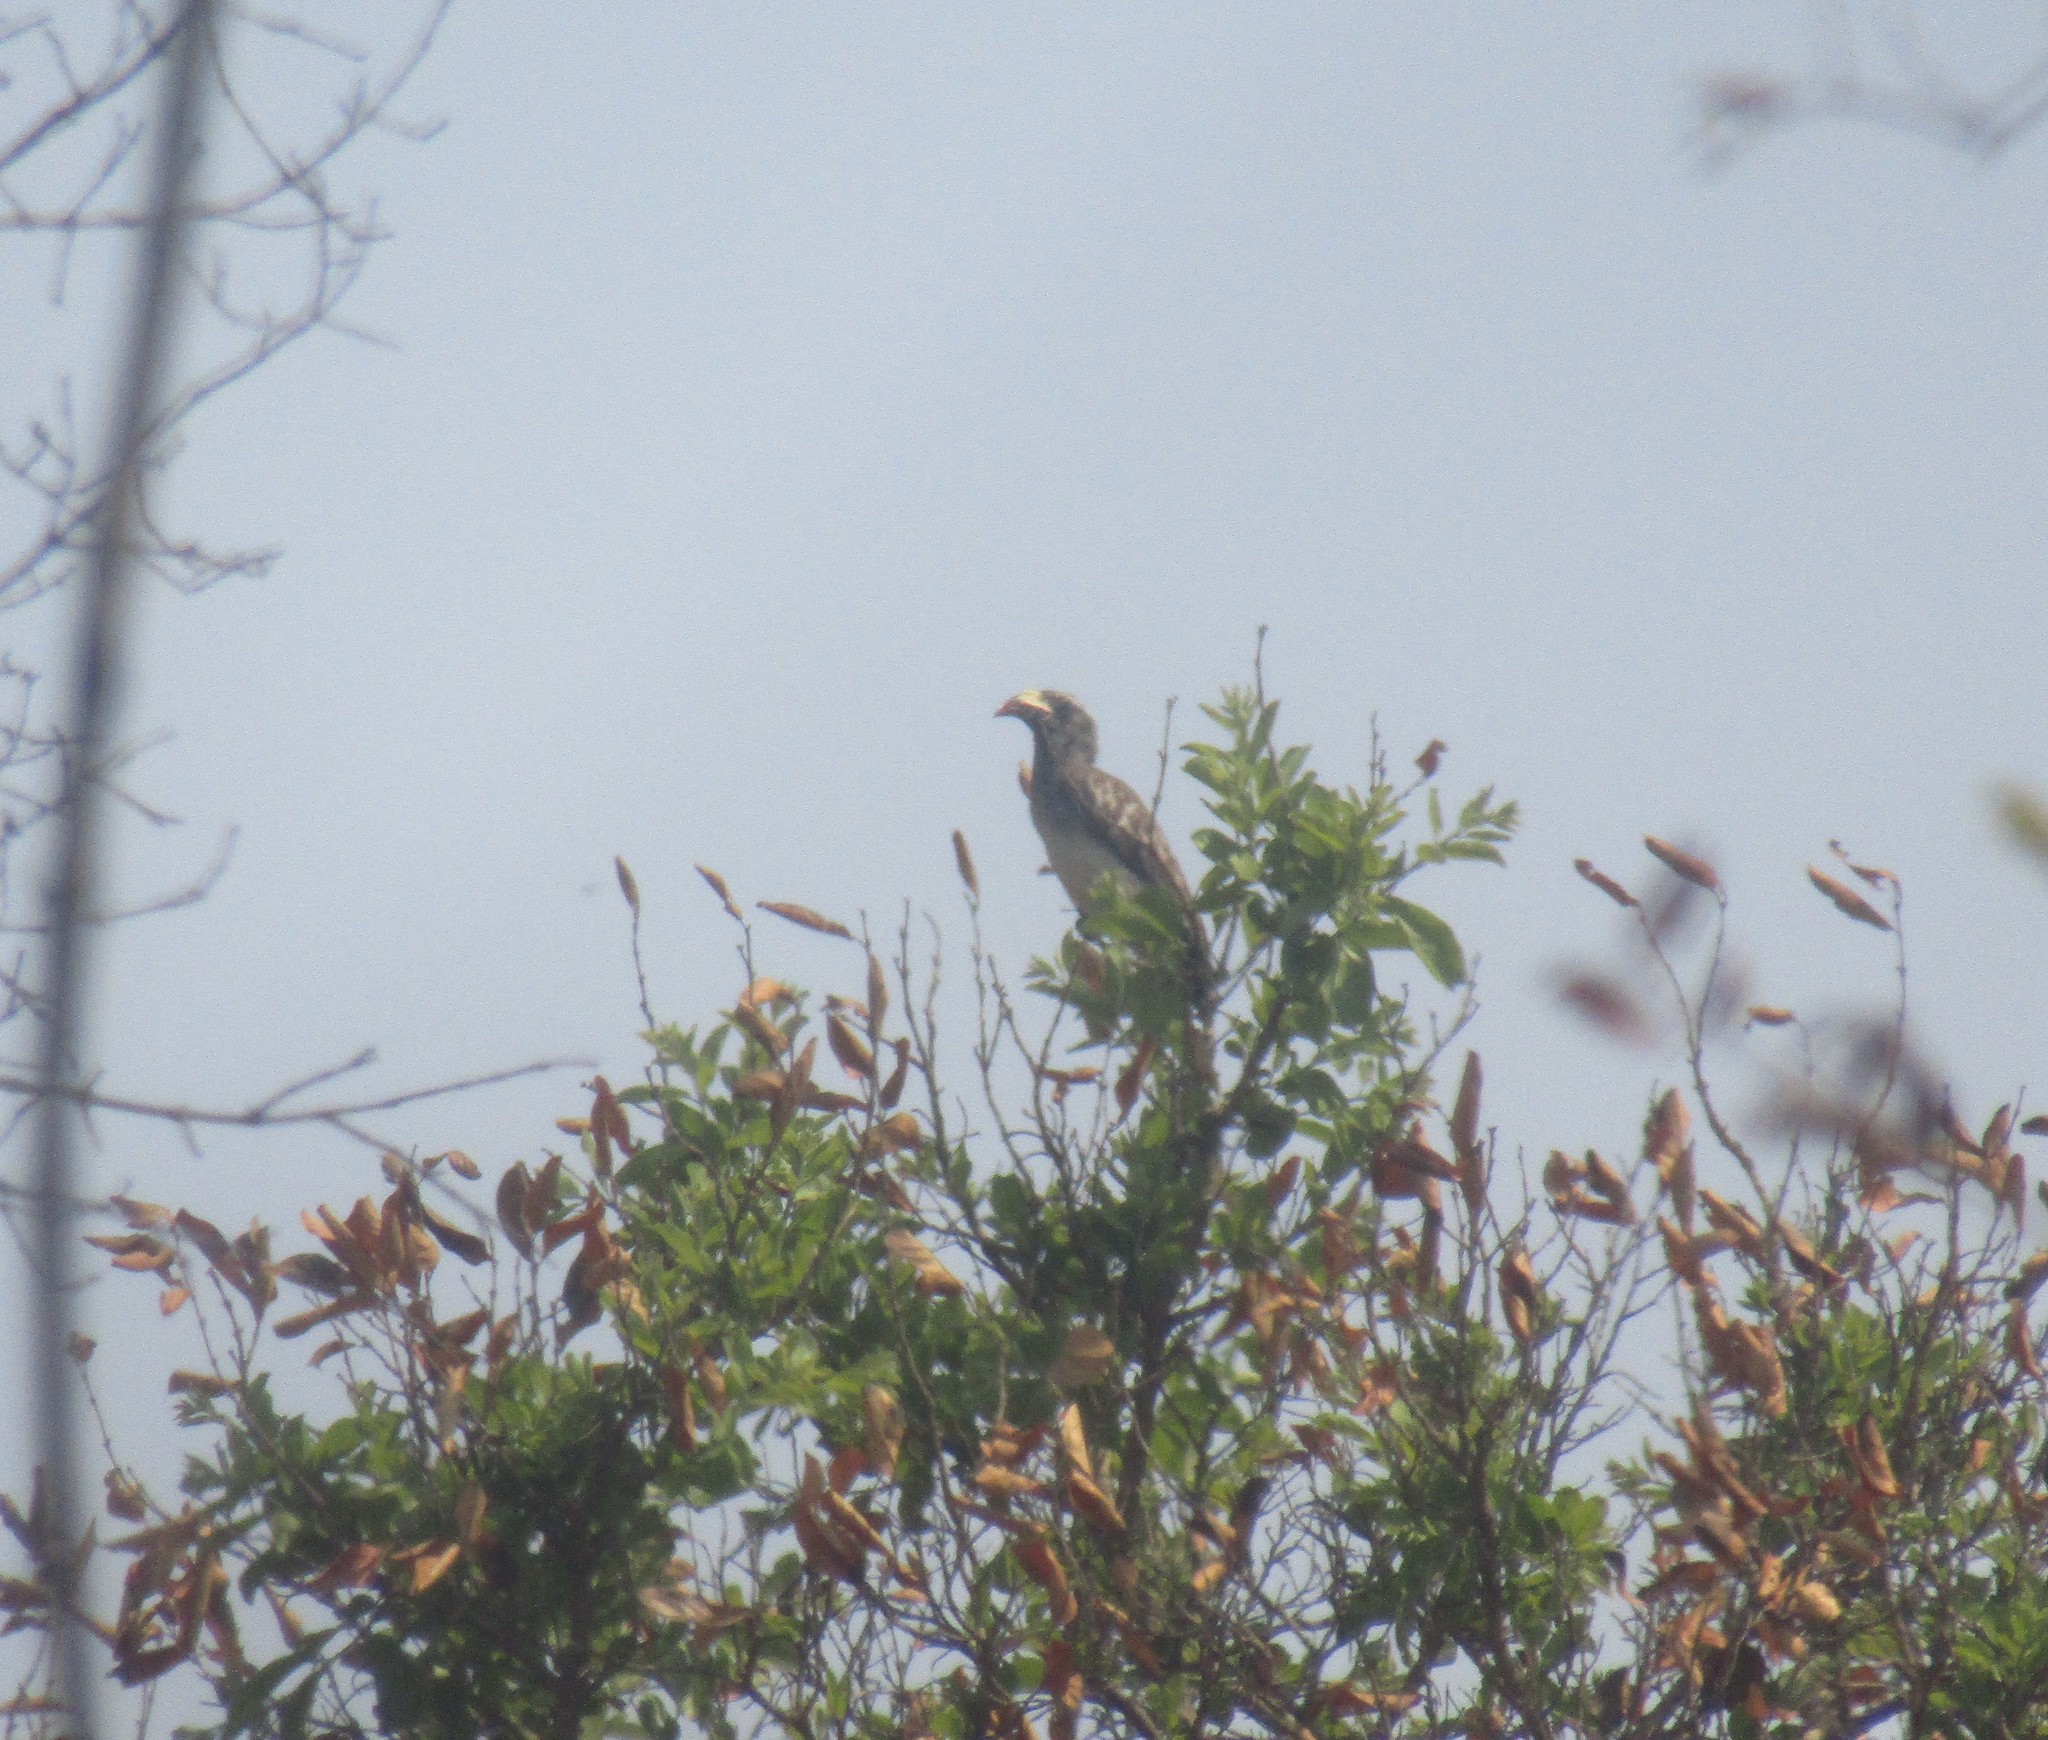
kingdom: Animalia
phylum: Chordata
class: Aves
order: Bucerotiformes
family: Bucerotidae
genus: Lophoceros
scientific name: Lophoceros nasutus
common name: African grey hornbill
